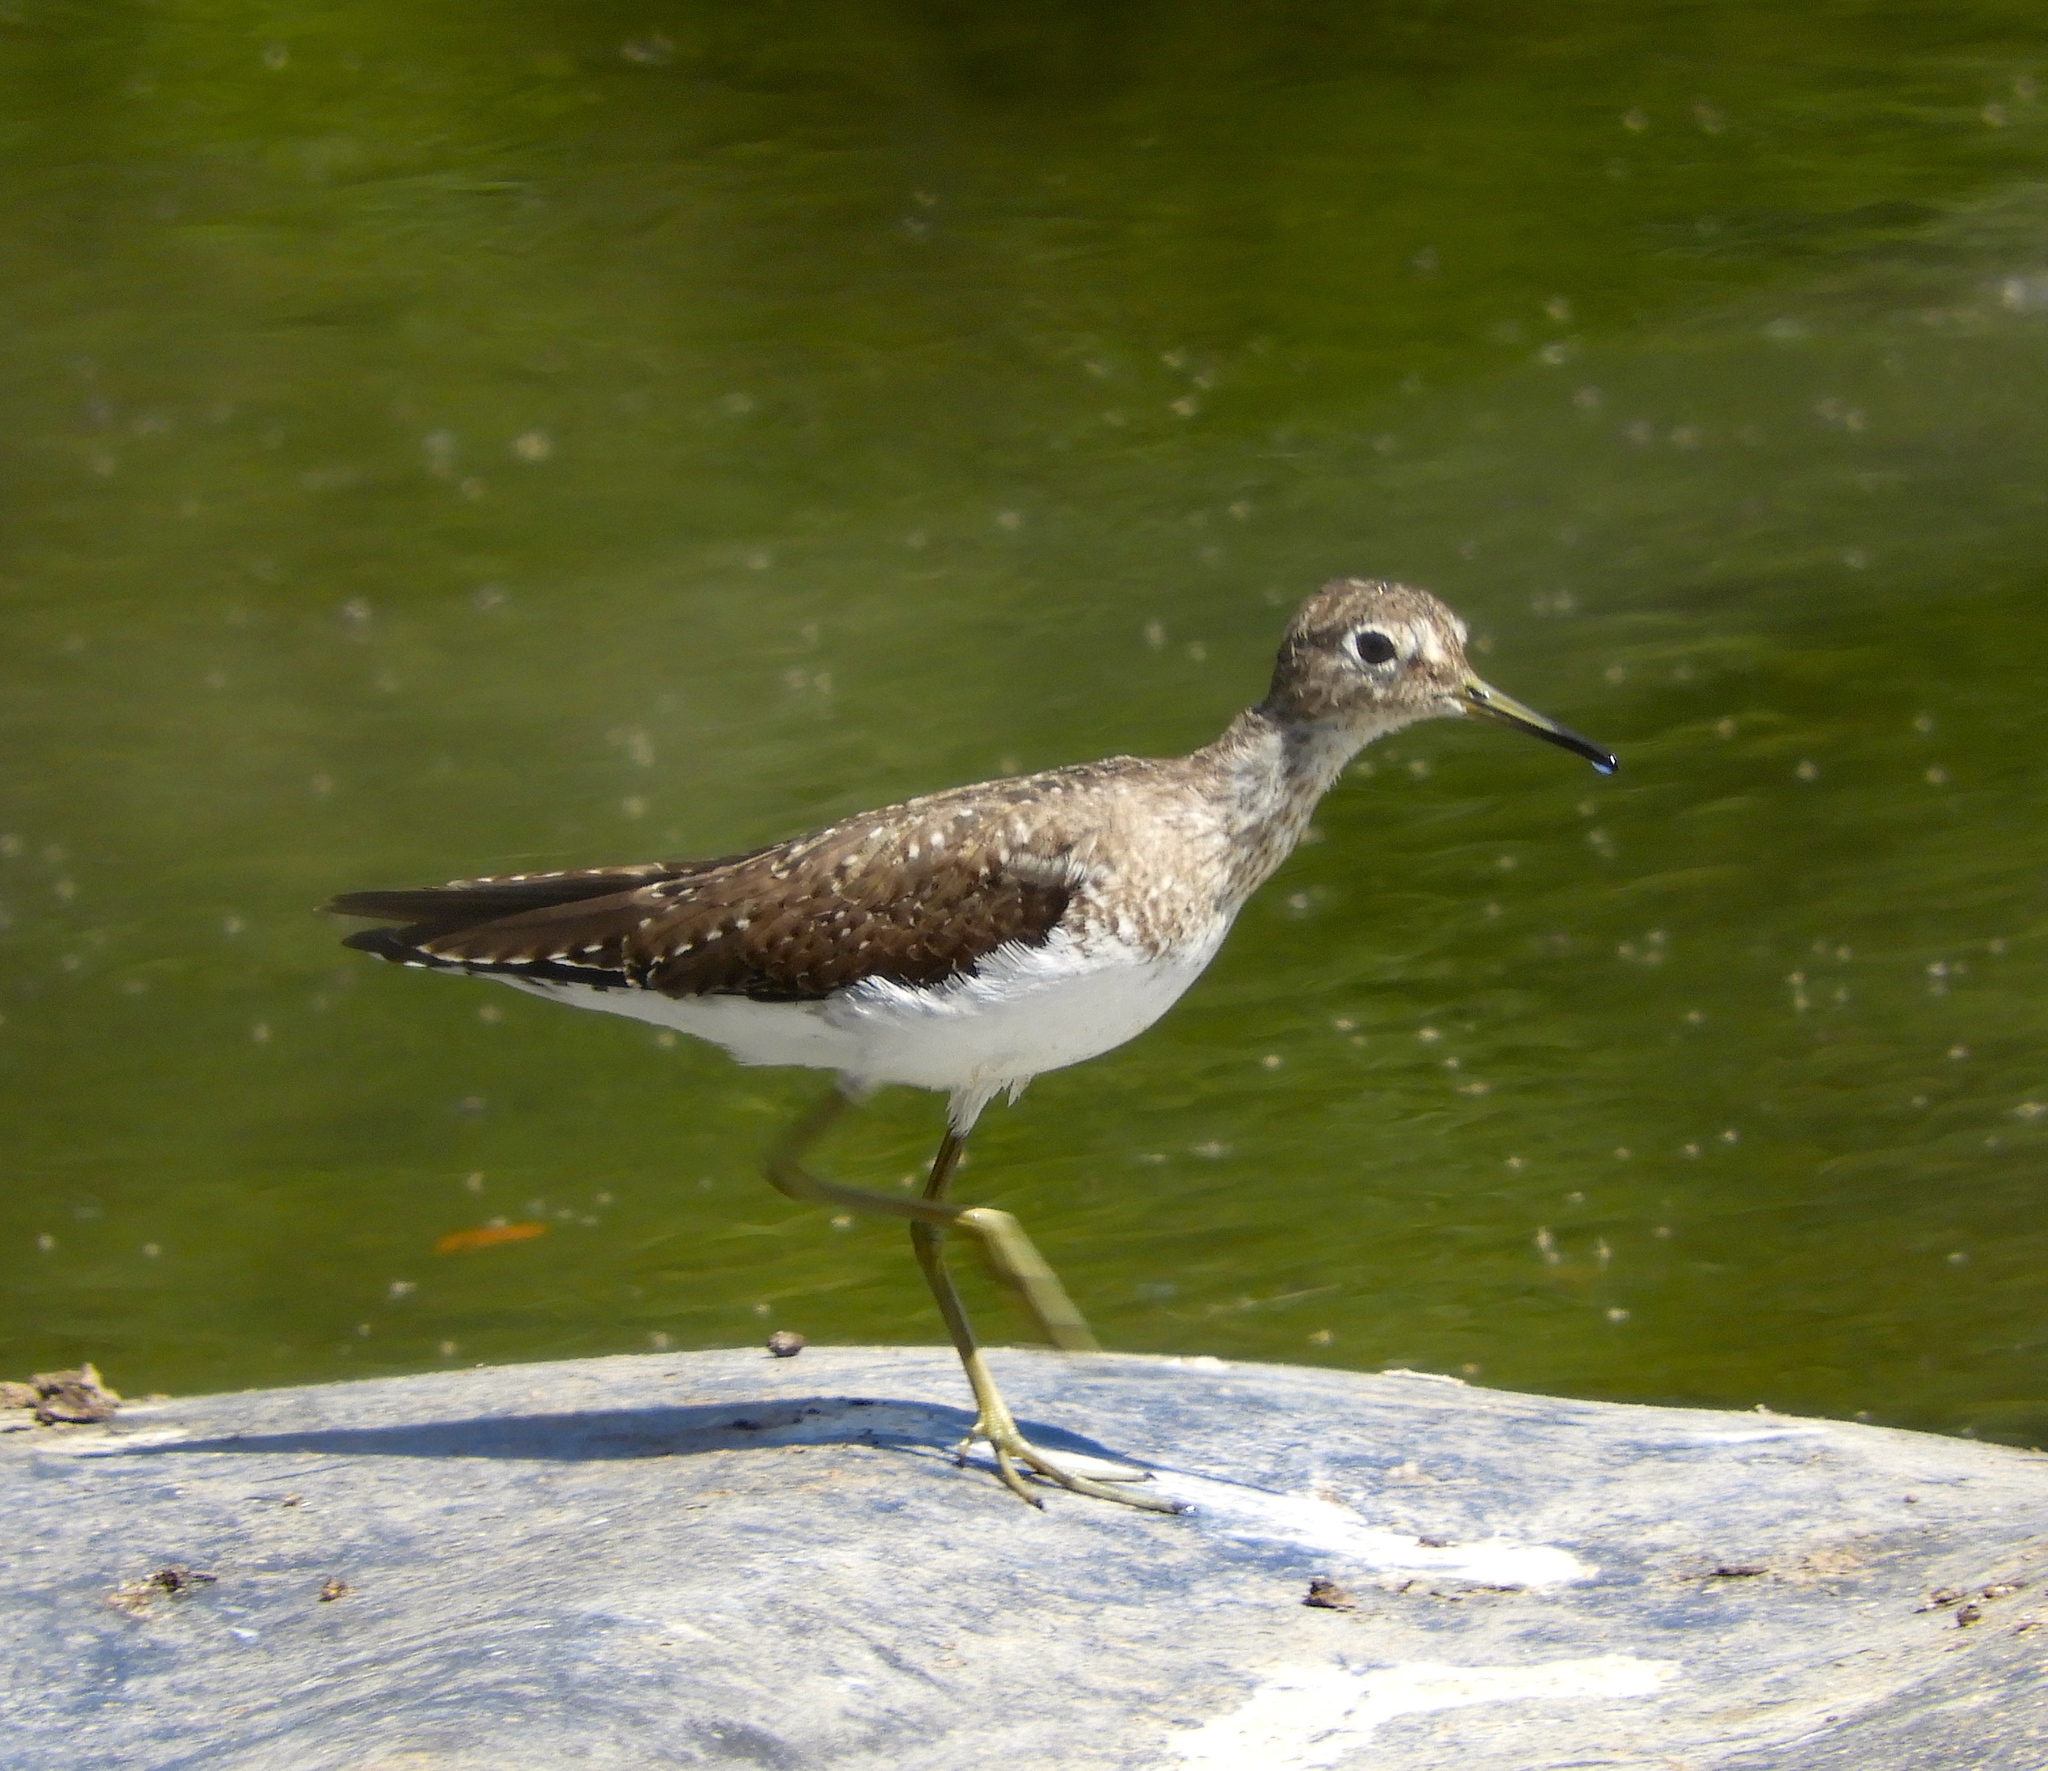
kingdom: Animalia
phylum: Chordata
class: Aves
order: Charadriiformes
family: Scolopacidae
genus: Tringa
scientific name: Tringa solitaria
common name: Solitary sandpiper
